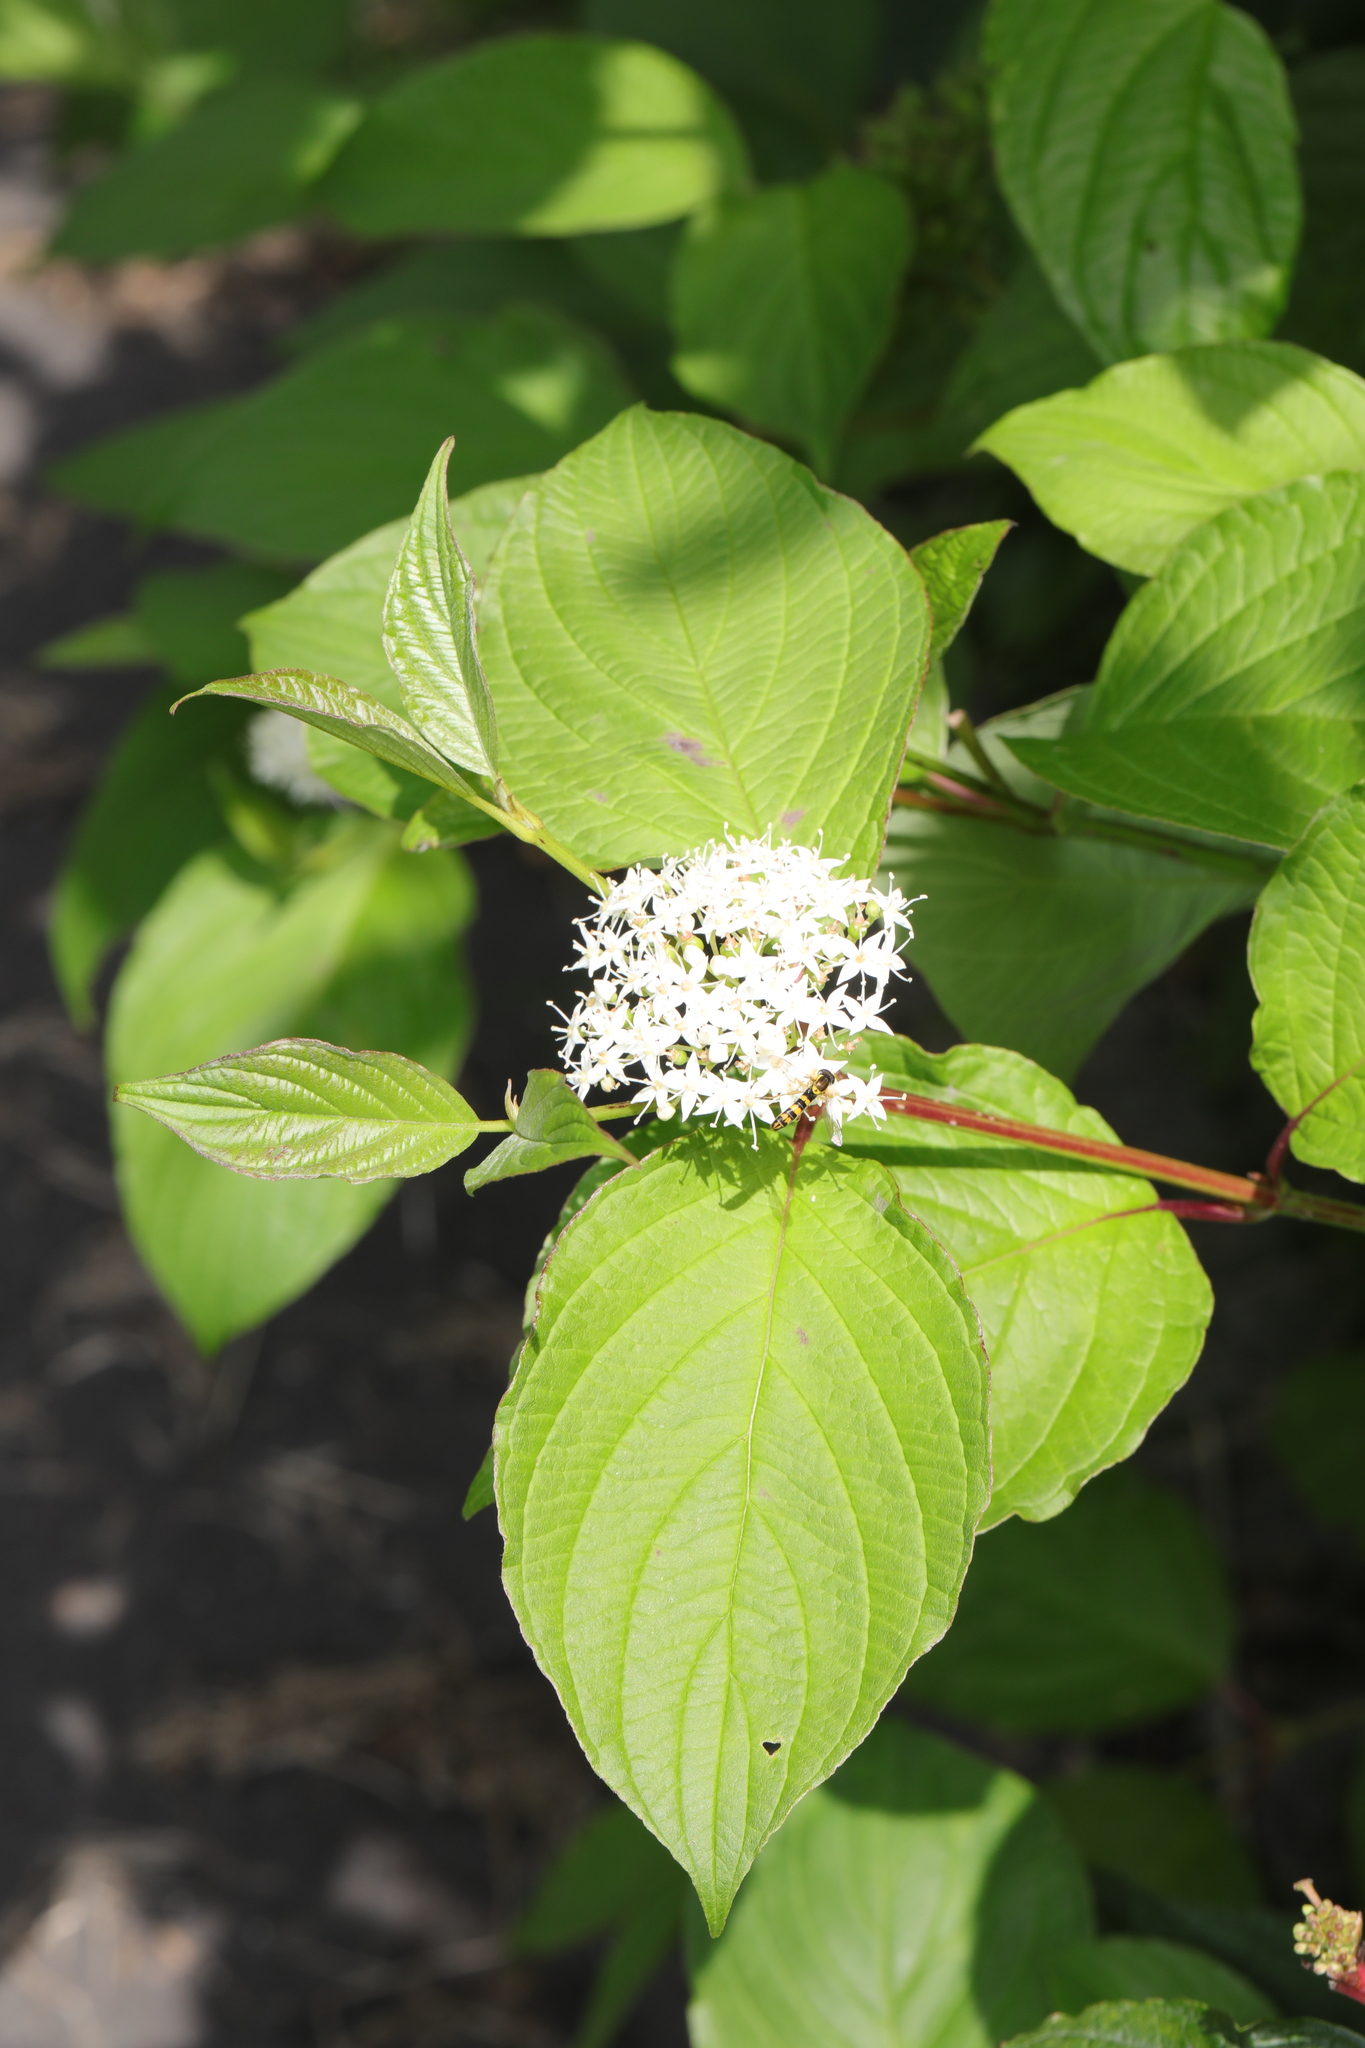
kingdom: Plantae
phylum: Tracheophyta
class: Magnoliopsida
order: Cornales
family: Cornaceae
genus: Cornus
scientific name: Cornus alba
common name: White dogwood
